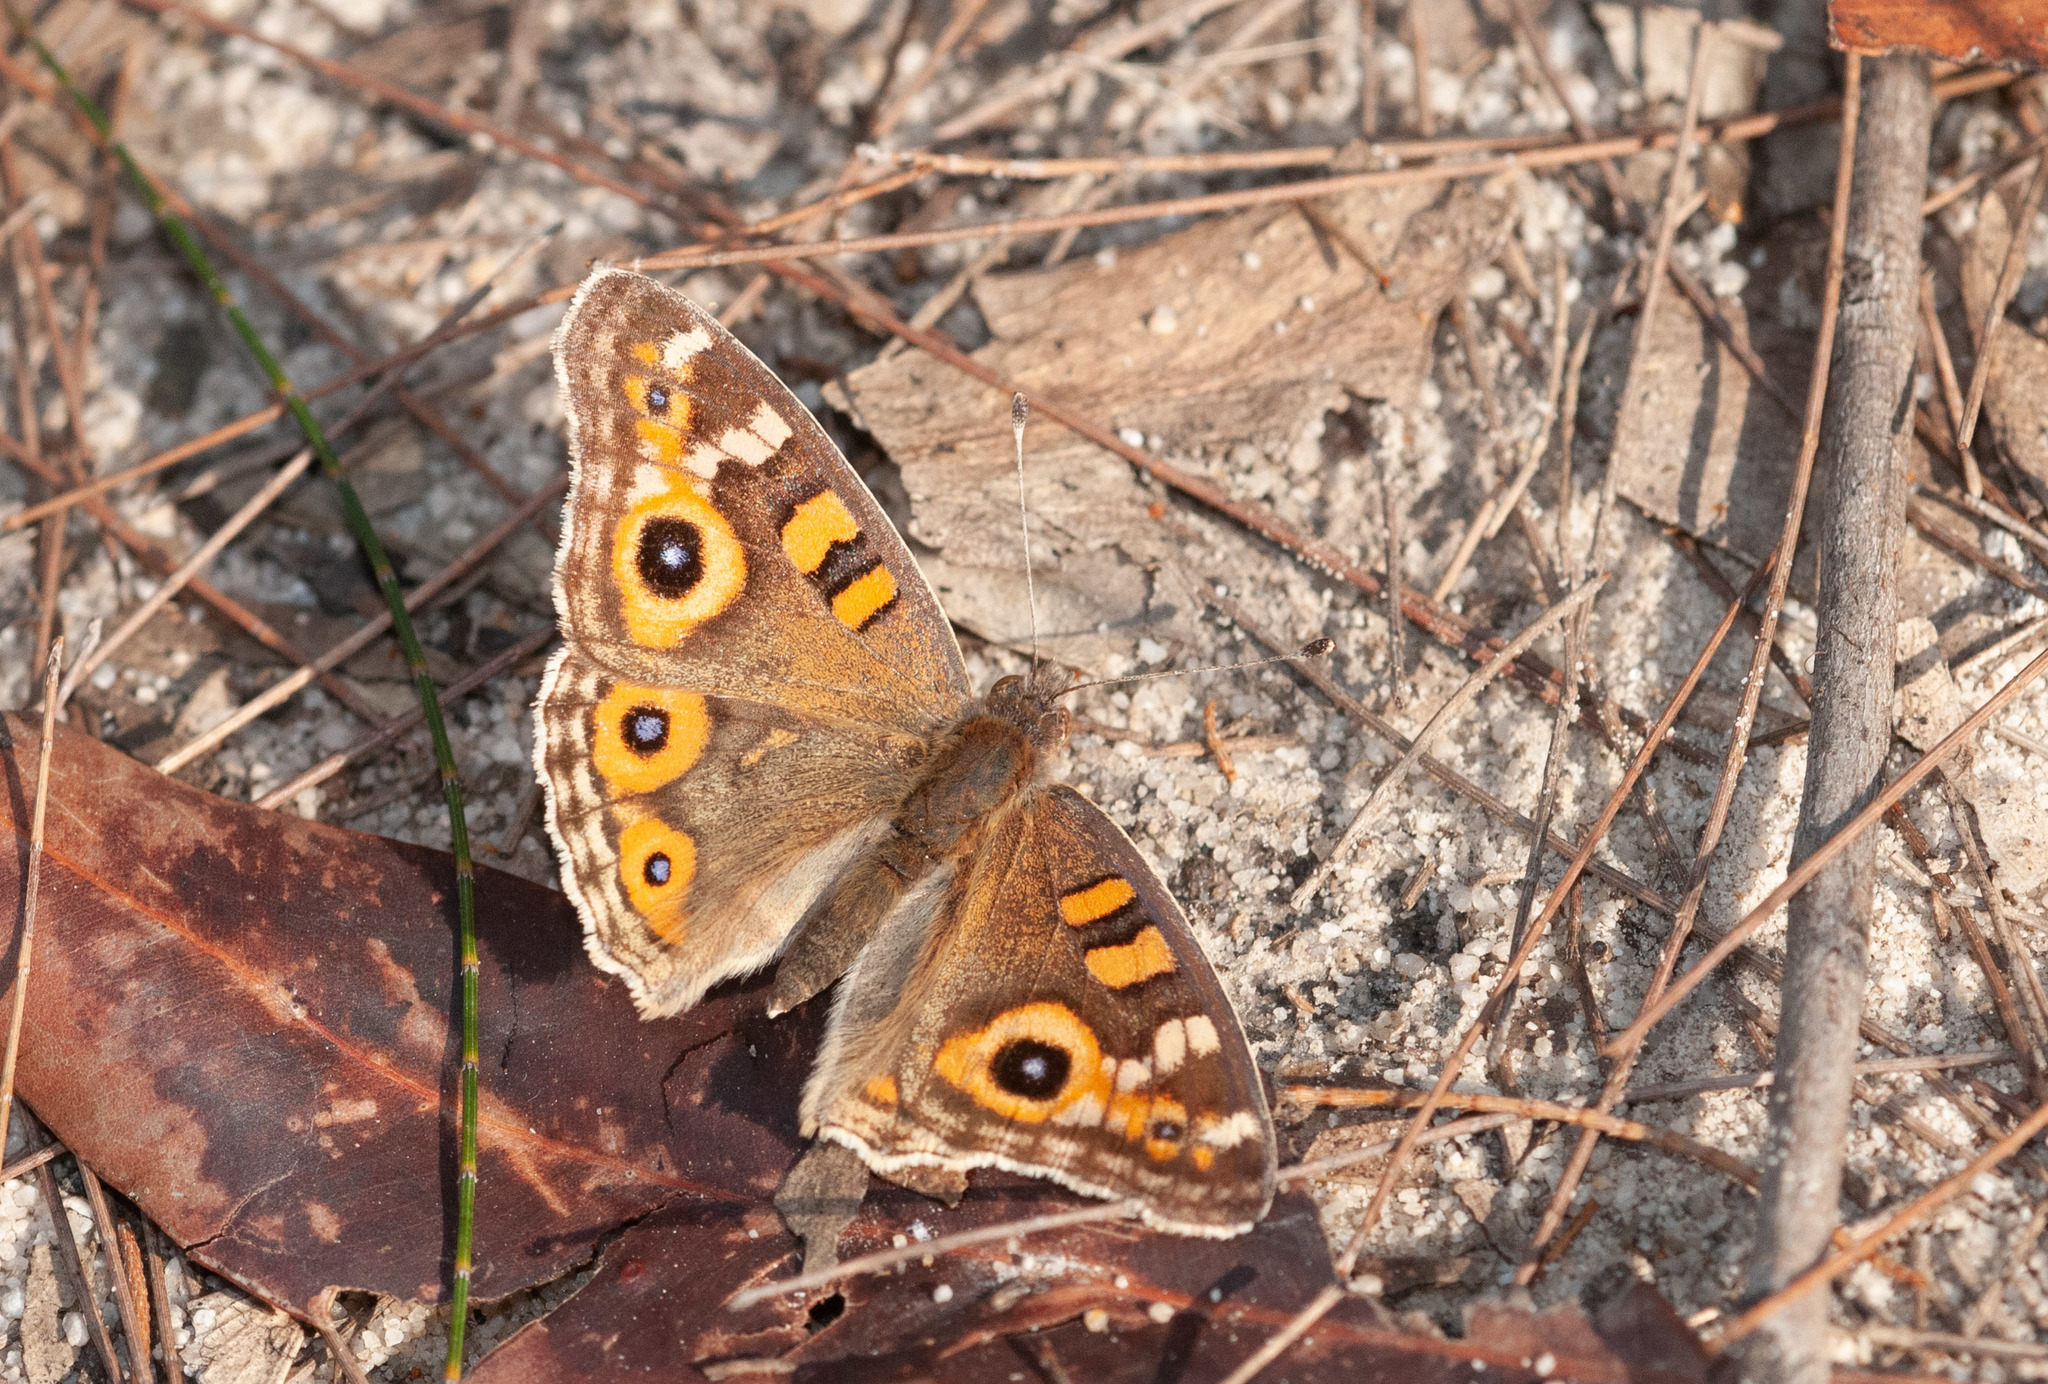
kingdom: Animalia
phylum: Arthropoda
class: Insecta
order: Lepidoptera
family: Nymphalidae
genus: Junonia
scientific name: Junonia villida
